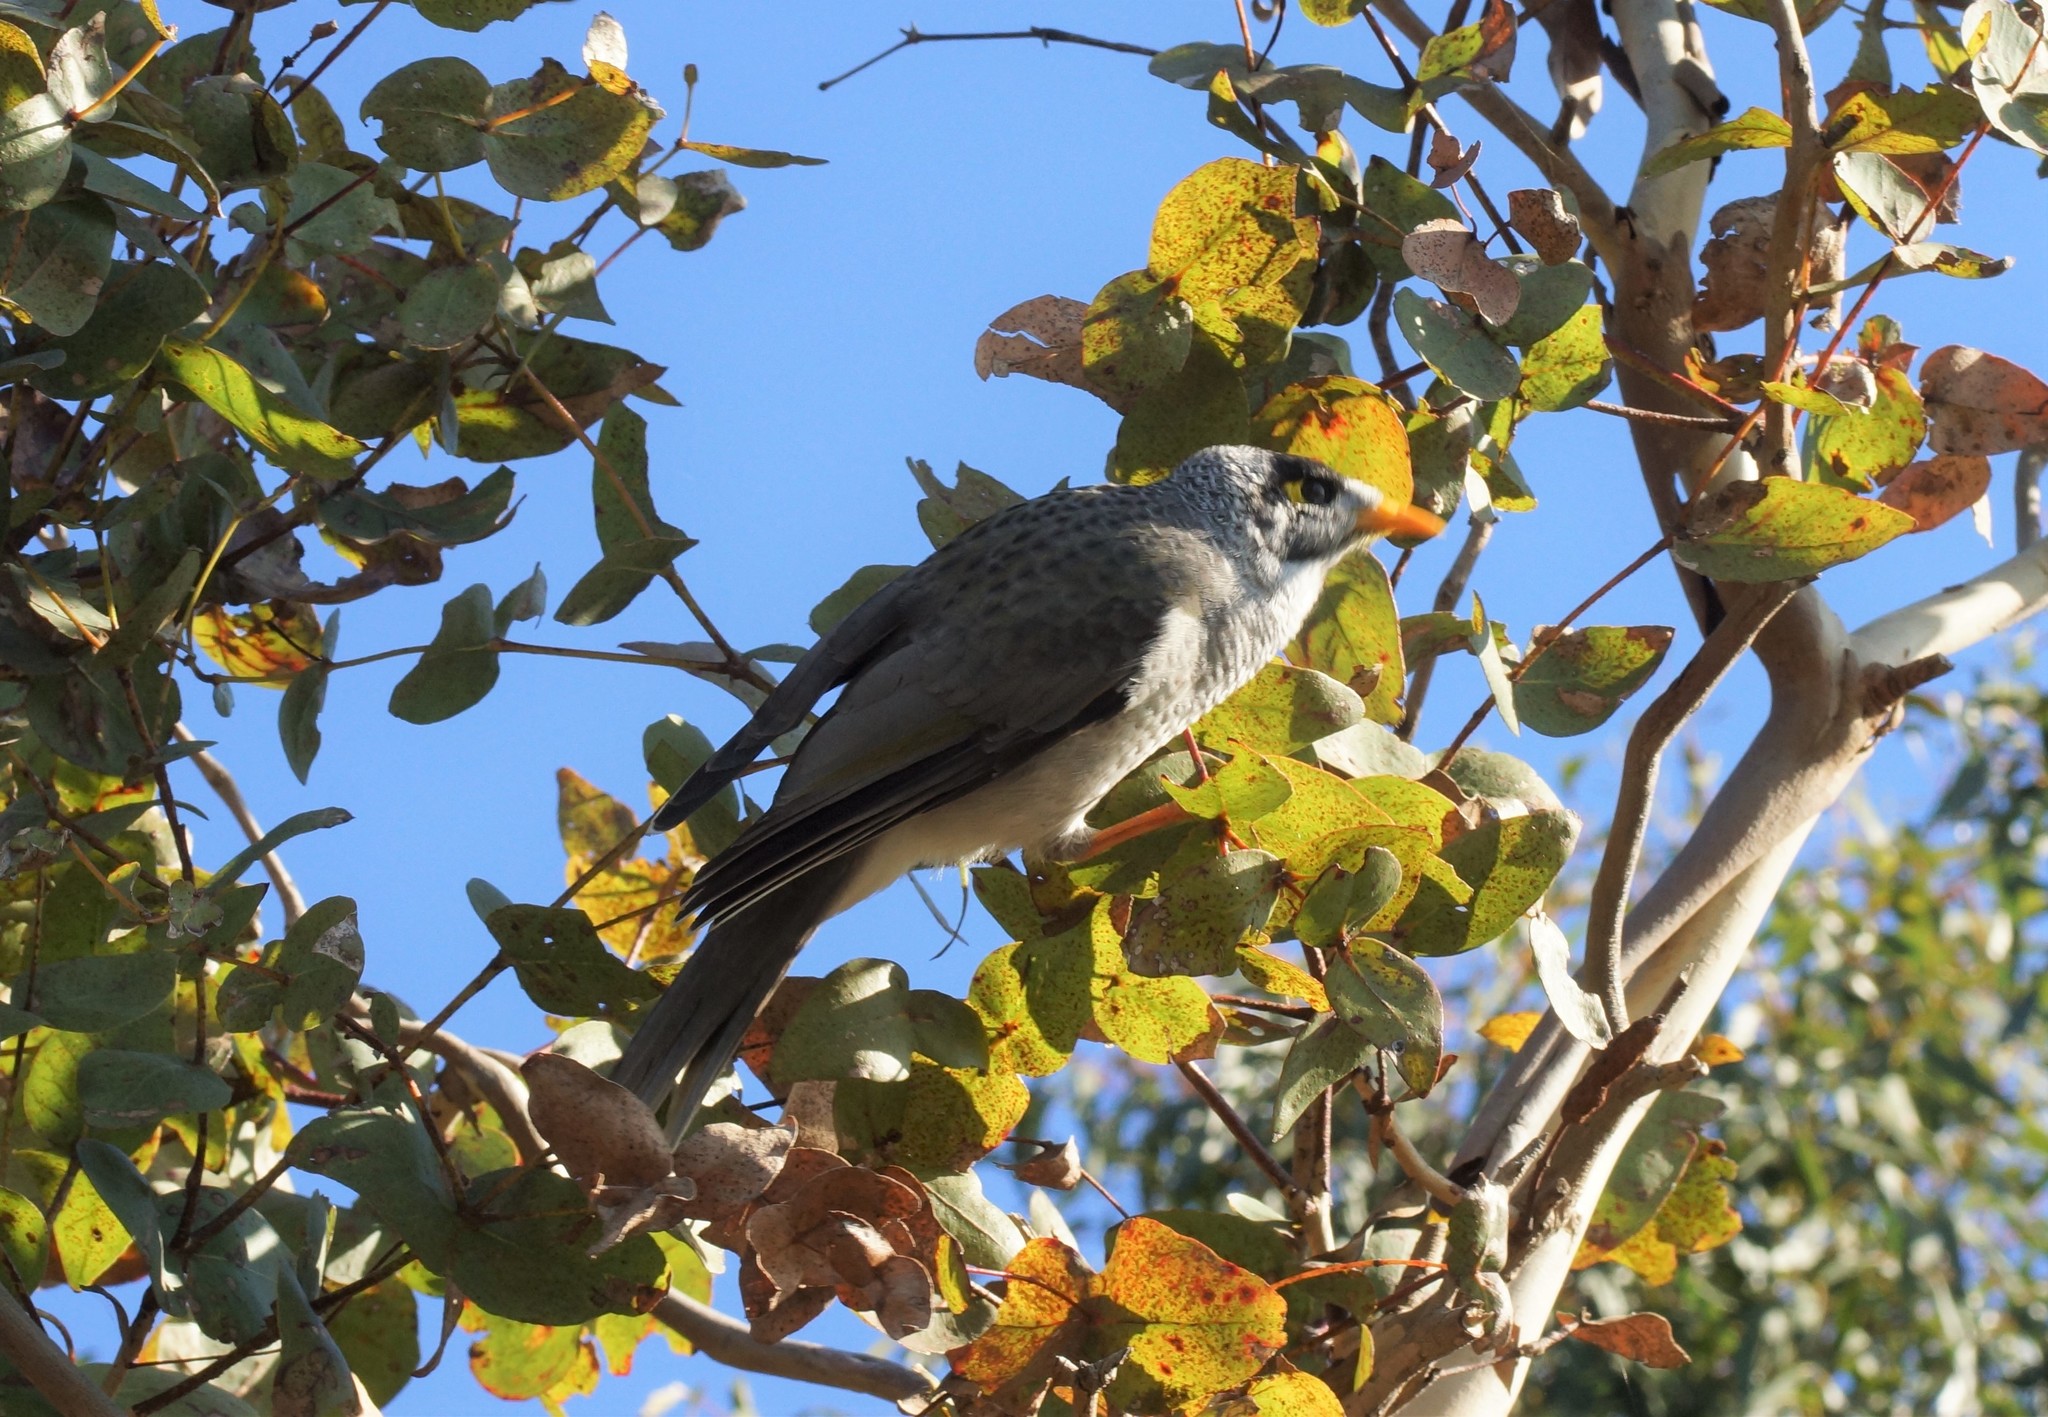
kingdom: Animalia
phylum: Chordata
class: Aves
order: Passeriformes
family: Meliphagidae
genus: Manorina
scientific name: Manorina melanocephala
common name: Noisy miner
